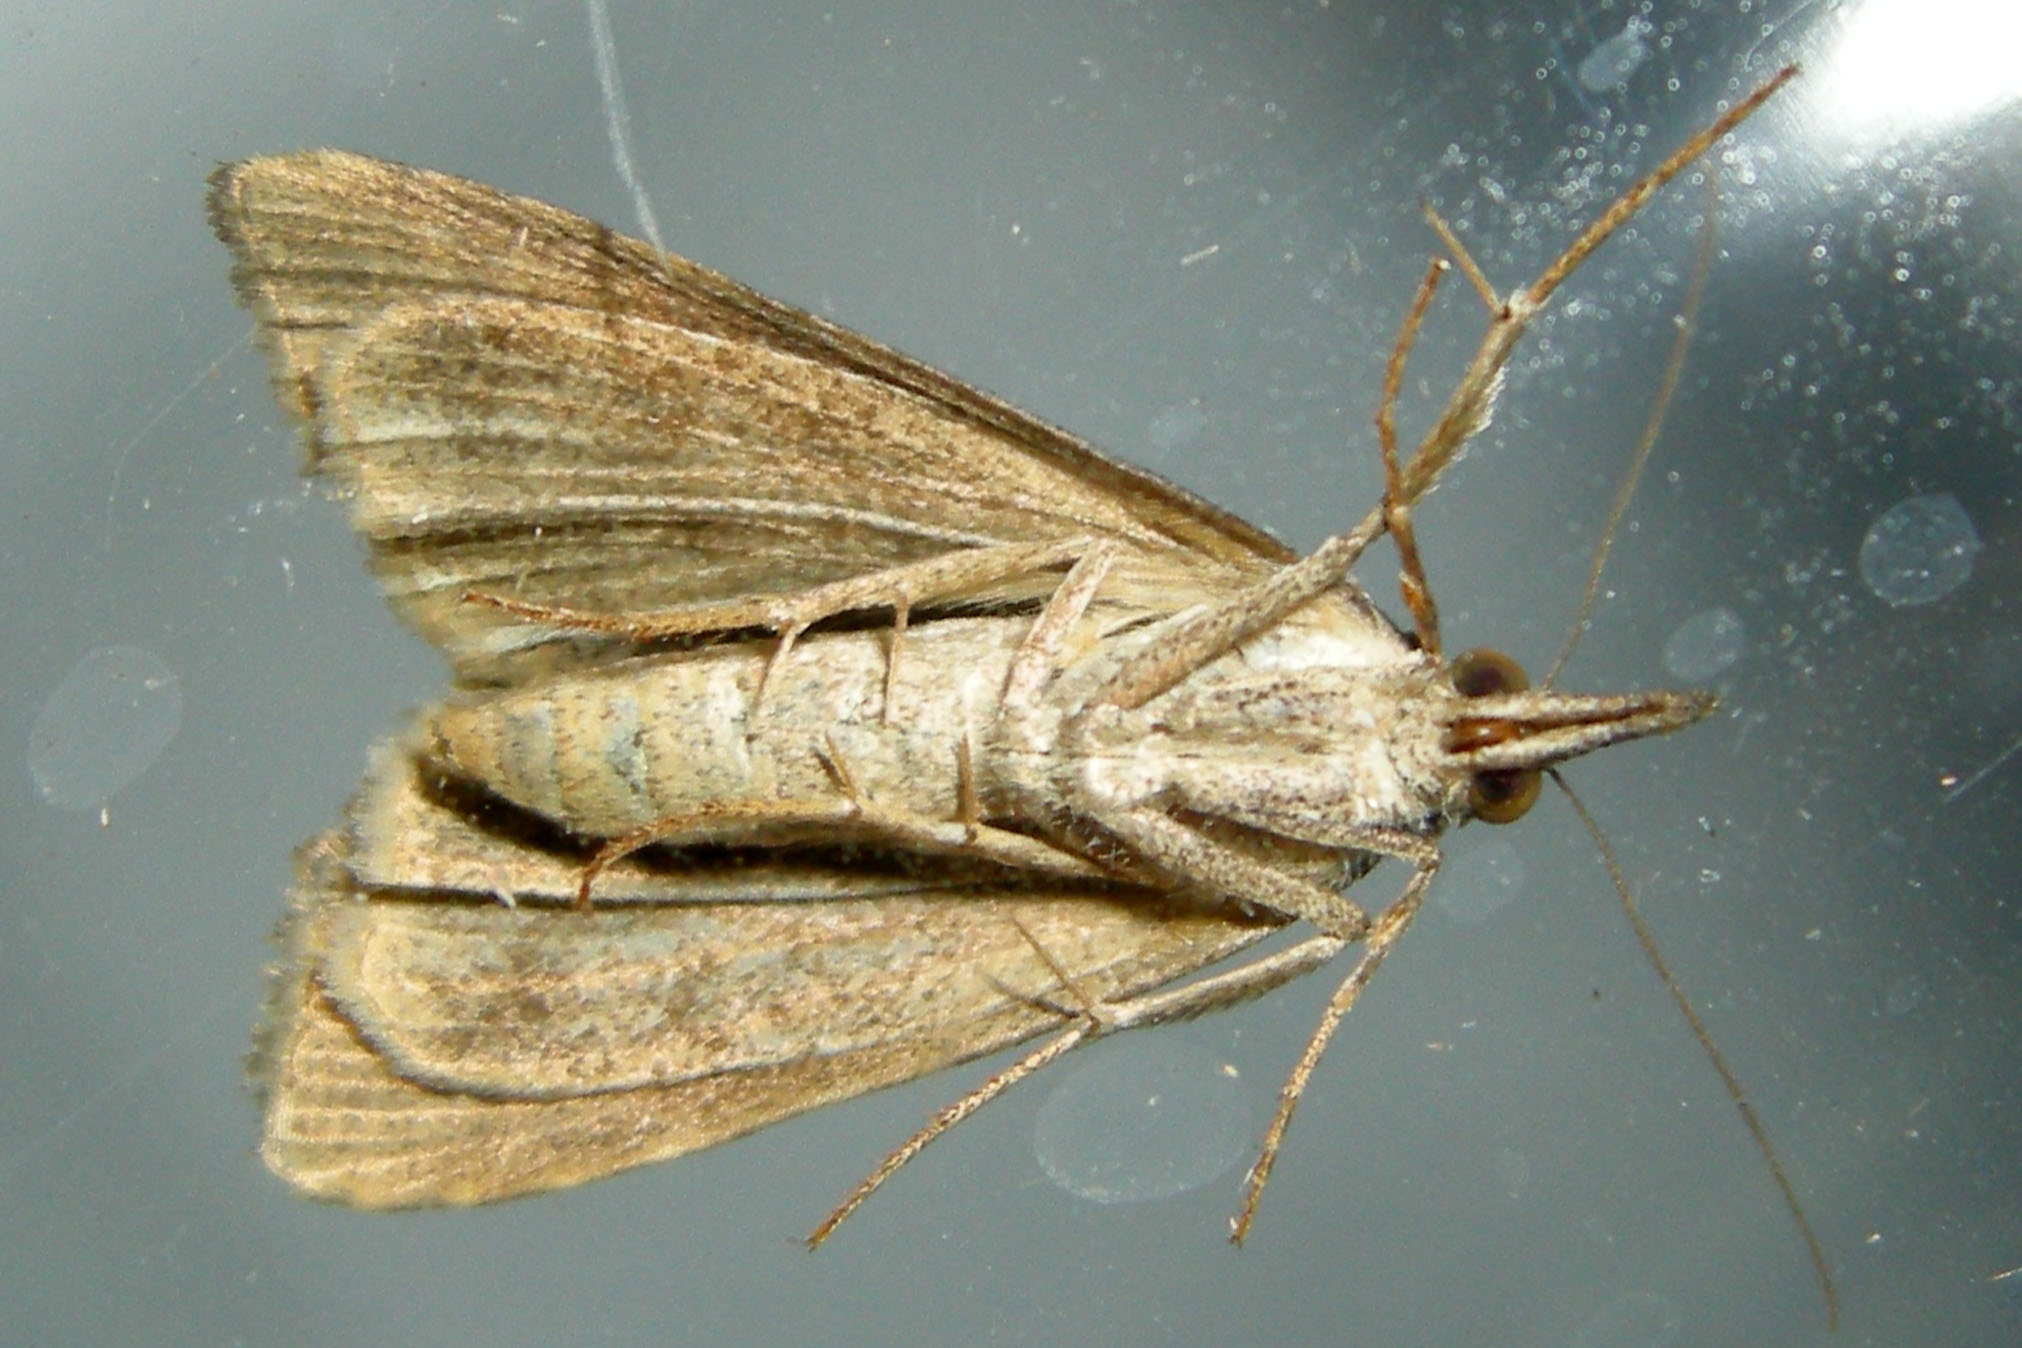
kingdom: Animalia
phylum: Arthropoda
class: Insecta
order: Lepidoptera
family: Erebidae
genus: Hypena
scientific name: Hypena scabra
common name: Green cloverworm
